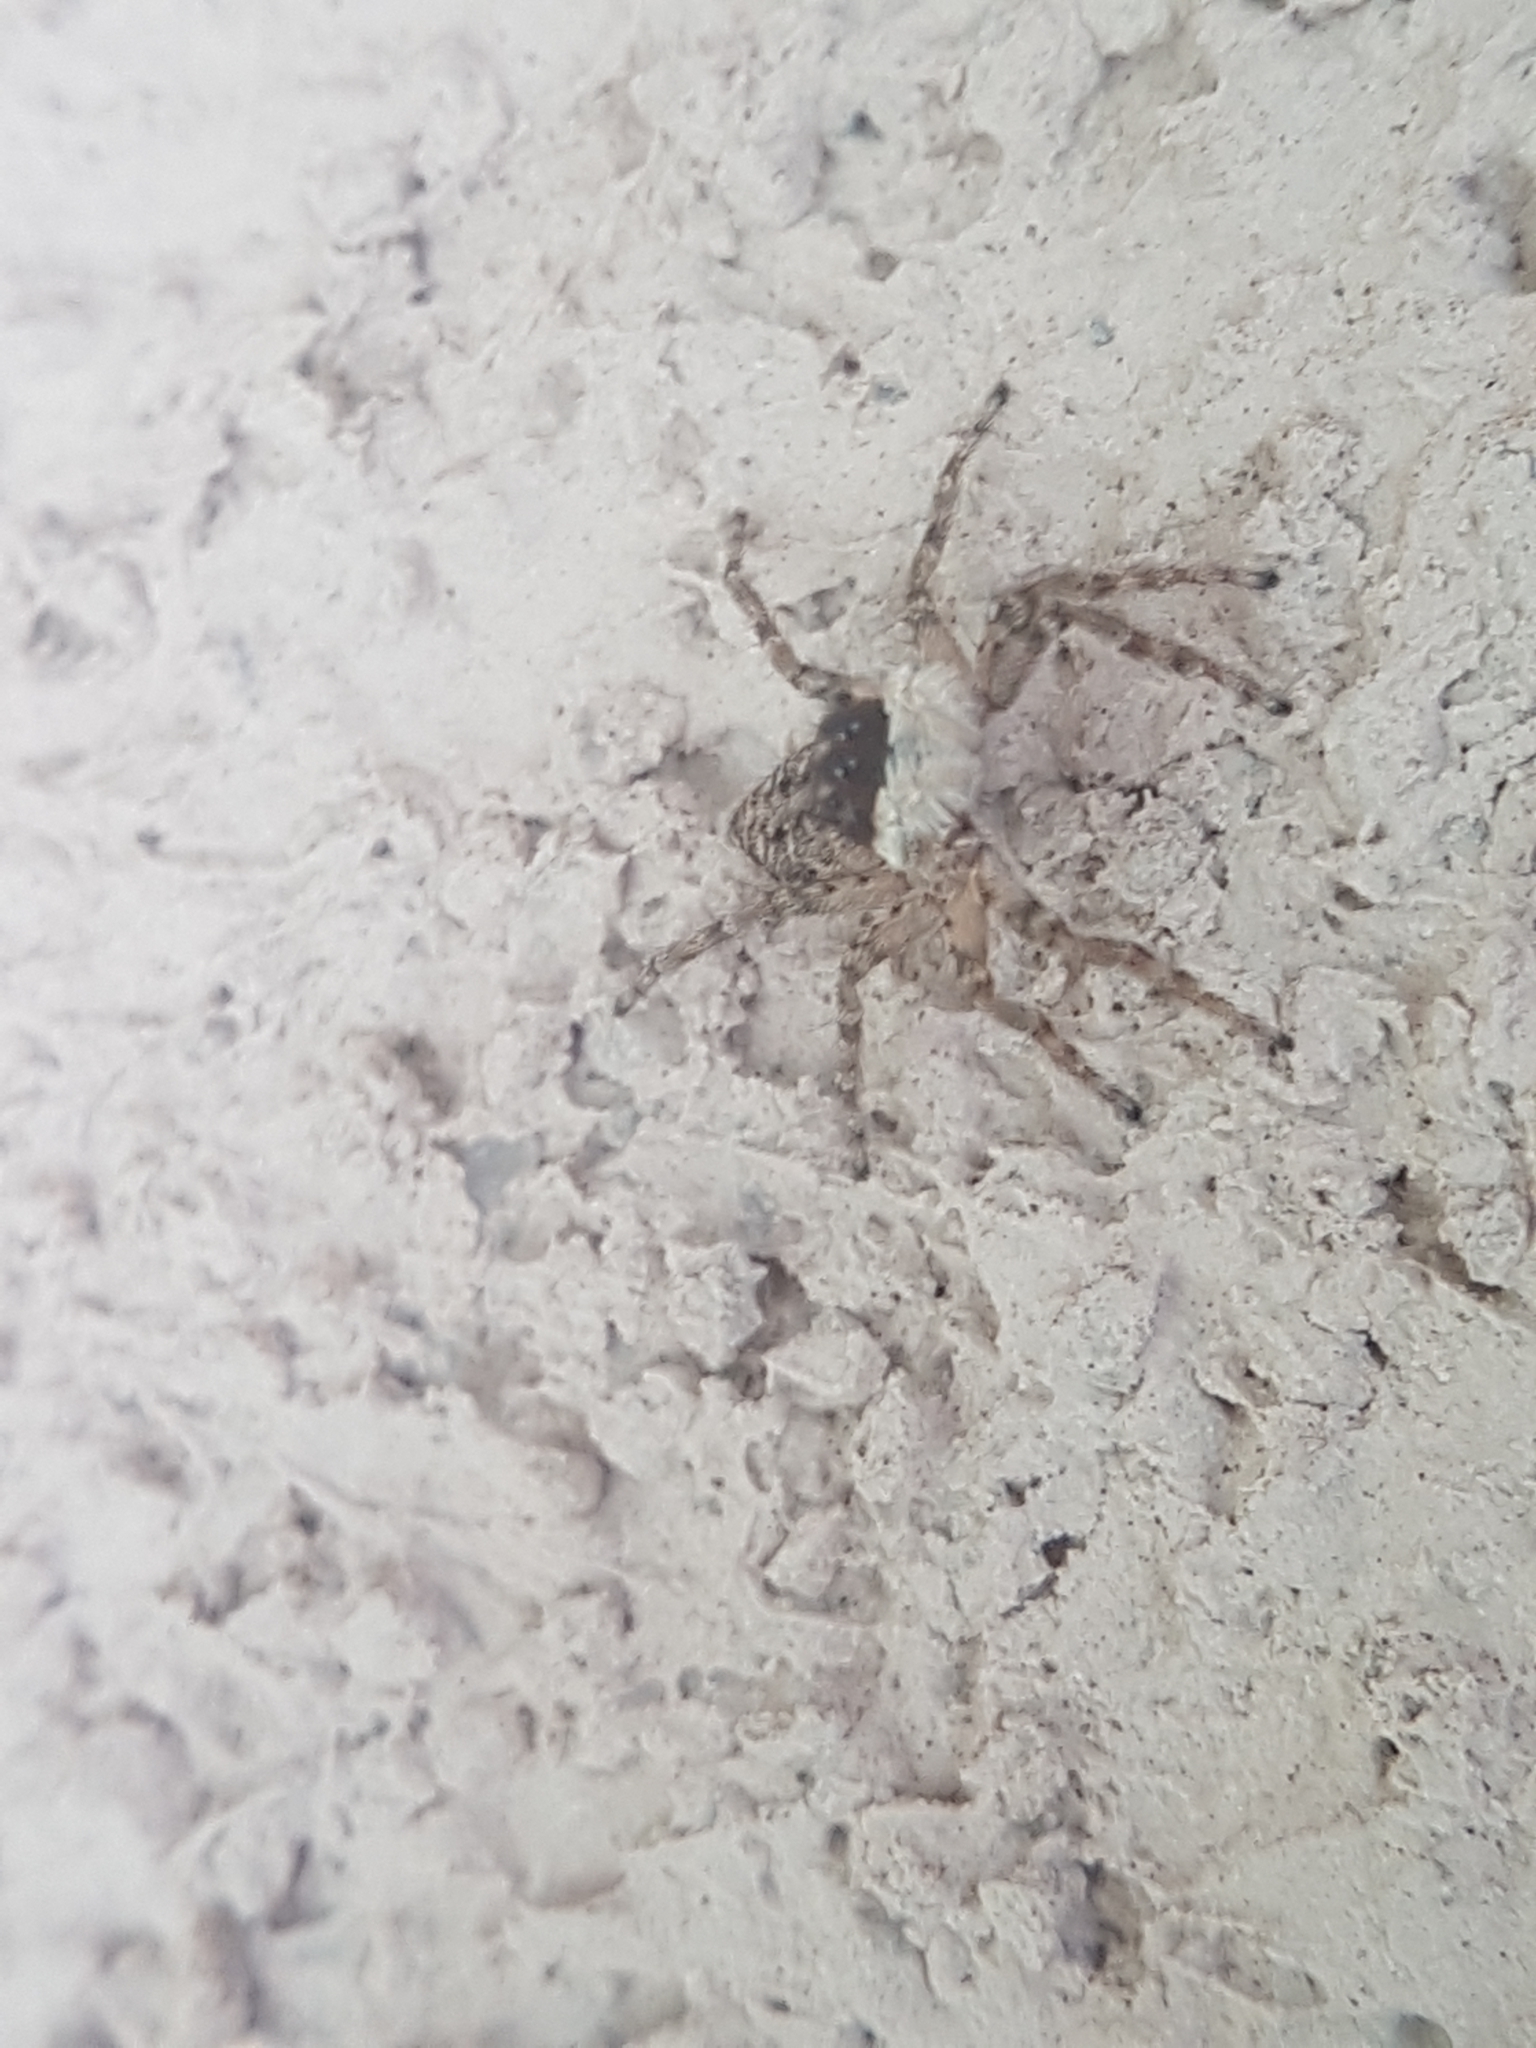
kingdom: Animalia
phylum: Arthropoda
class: Arachnida
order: Araneae
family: Salticidae
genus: Menemerus
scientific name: Menemerus semilimbatus
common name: Jumping spider
